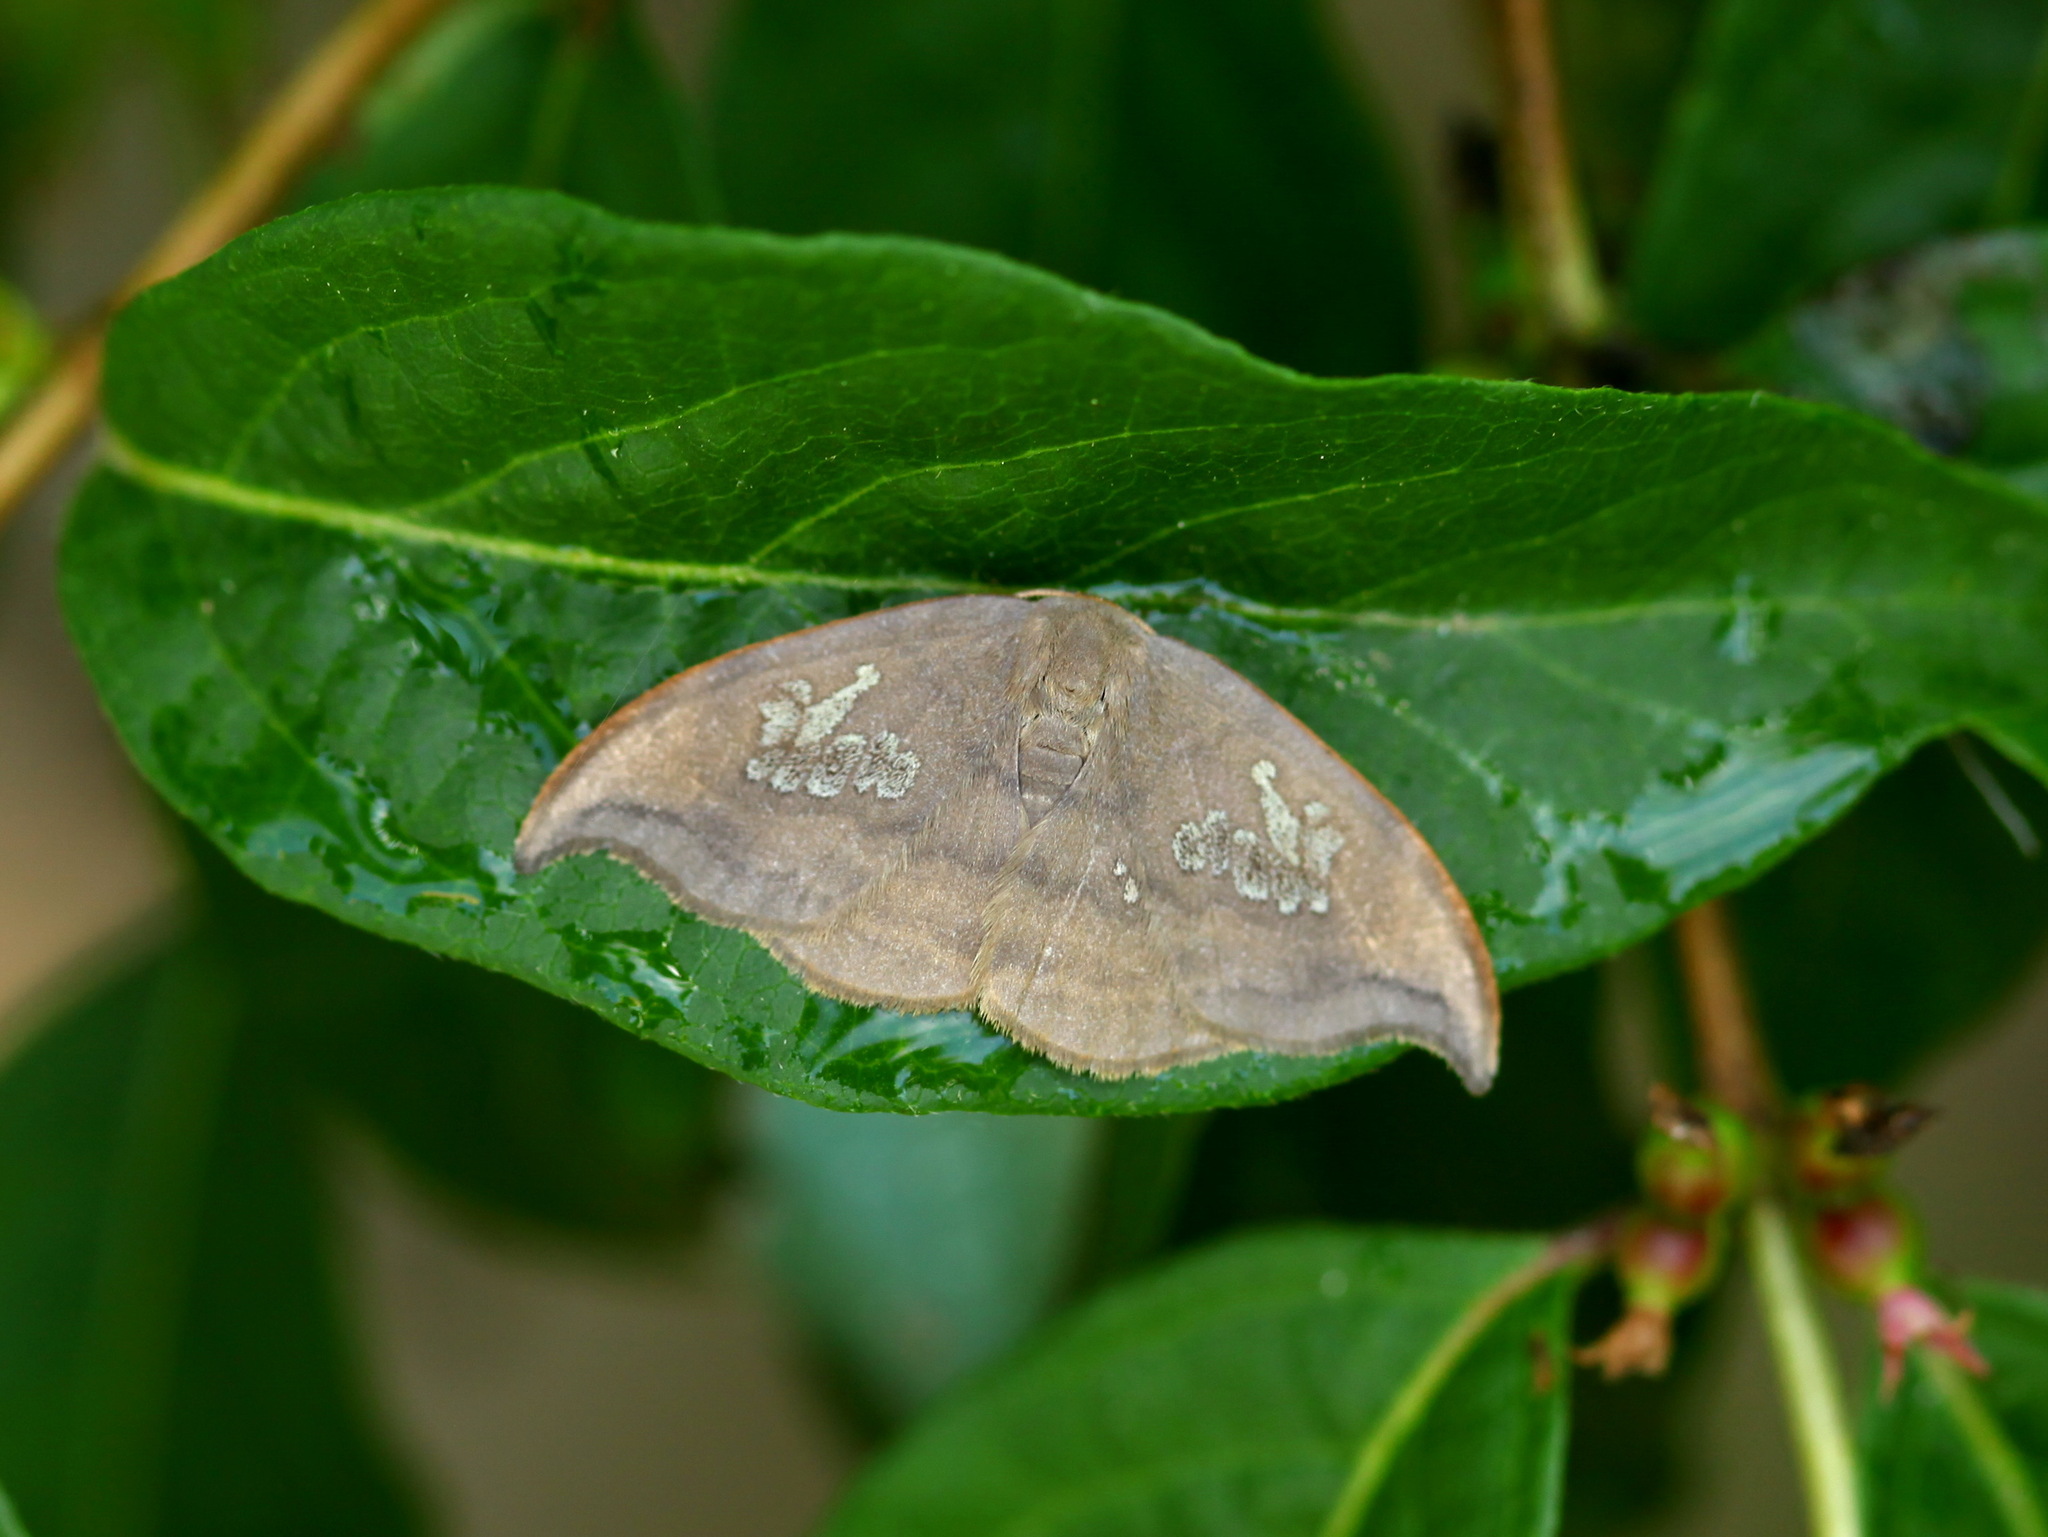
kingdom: Animalia
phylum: Arthropoda
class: Insecta
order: Lepidoptera
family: Drepanidae
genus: Agnidra
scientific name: Agnidra scabiosa
